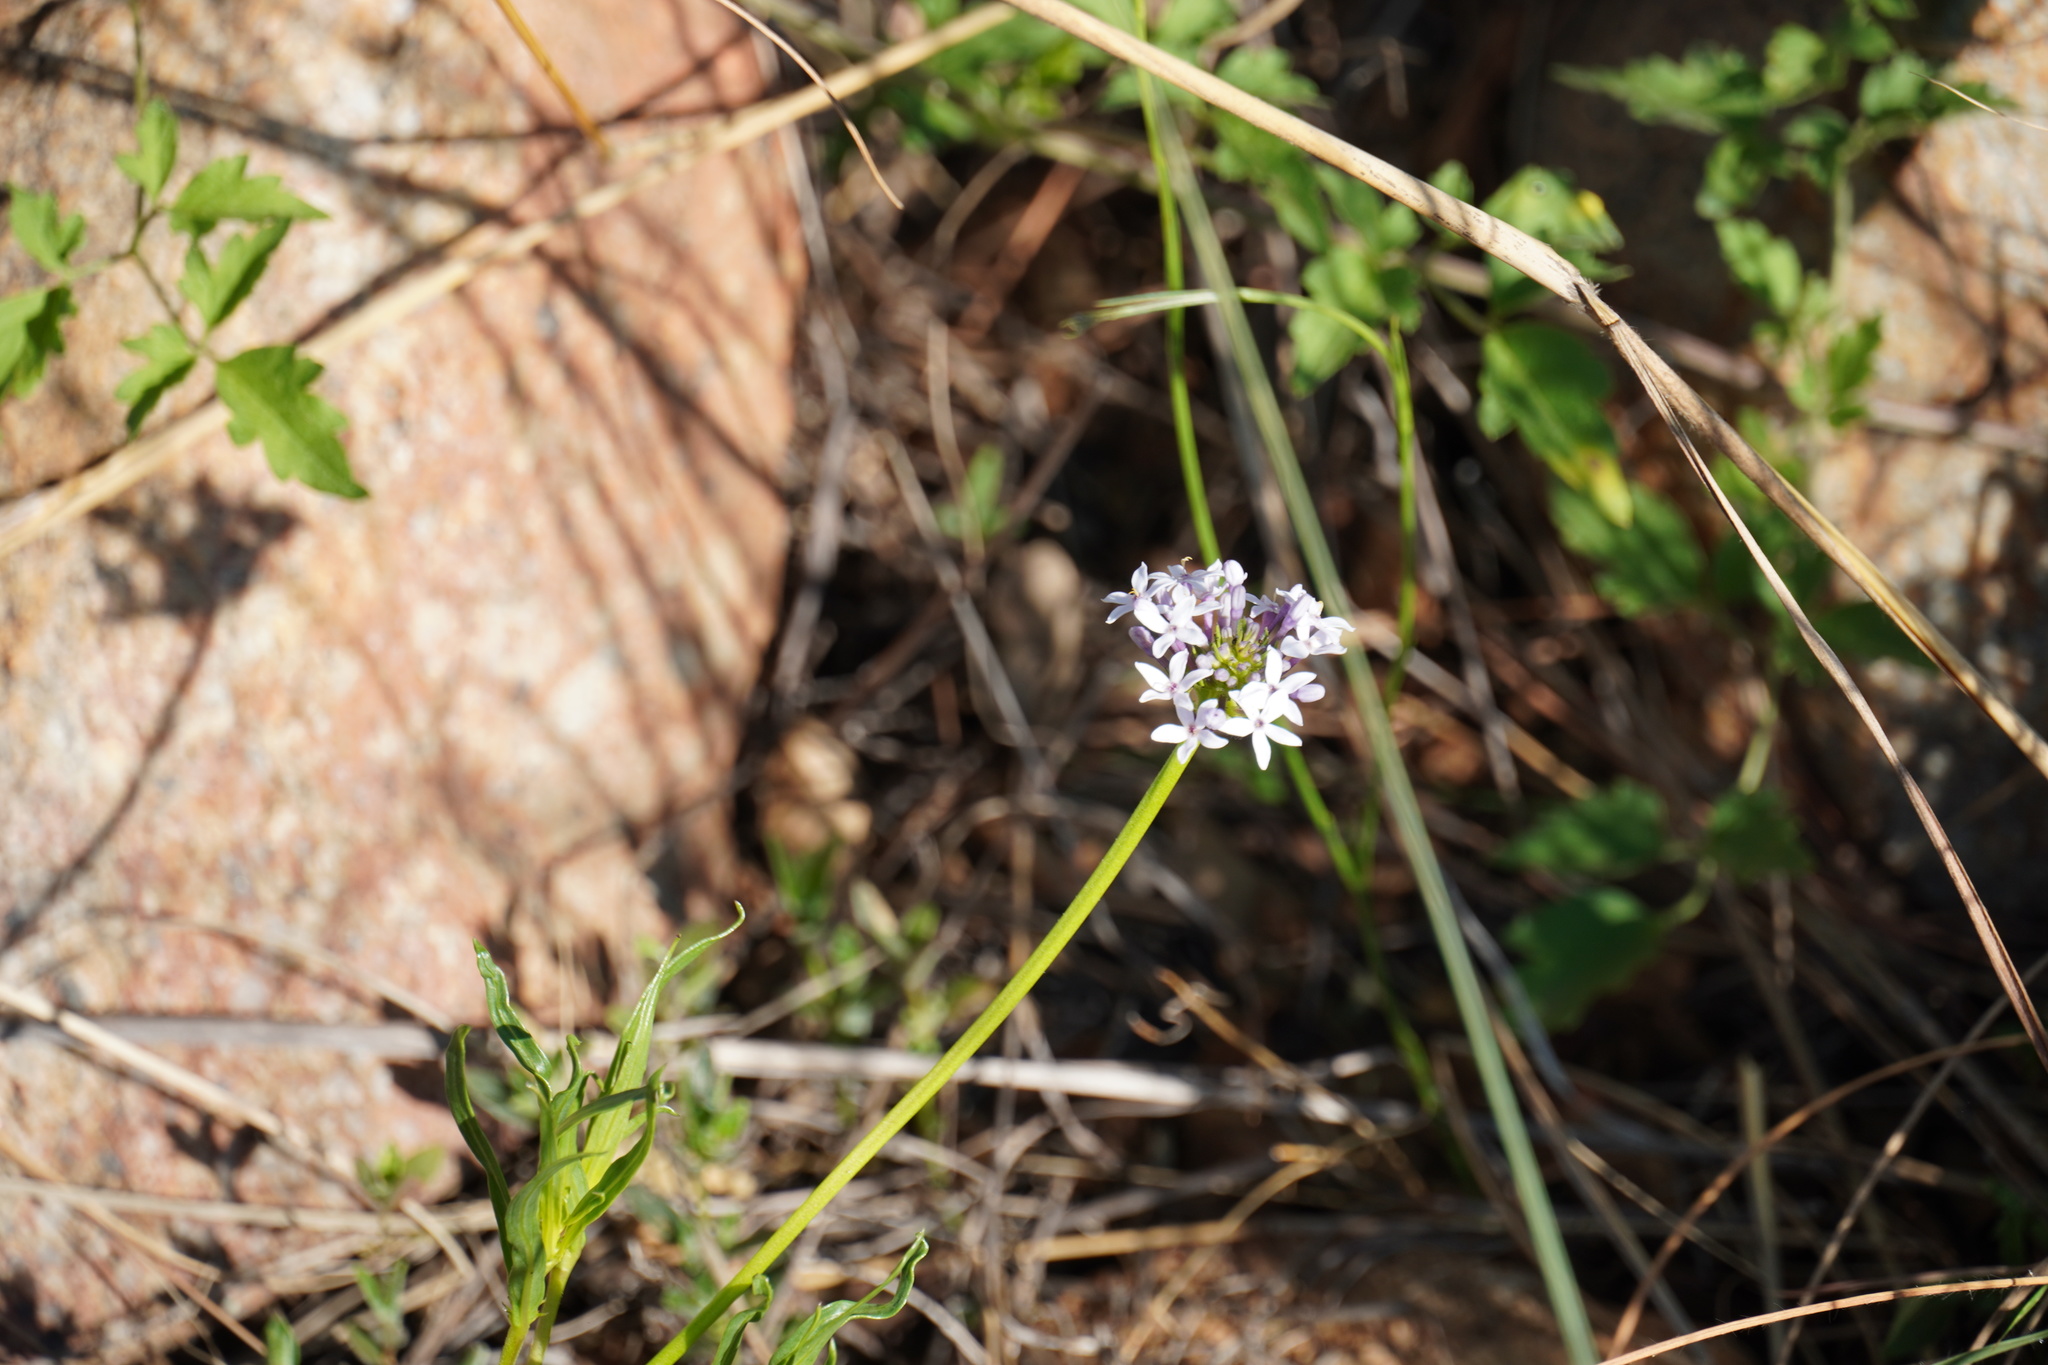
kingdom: Plantae
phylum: Tracheophyta
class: Magnoliopsida
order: Gentianales
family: Rubiaceae
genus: Pentanisia
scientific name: Pentanisia angustifolia
